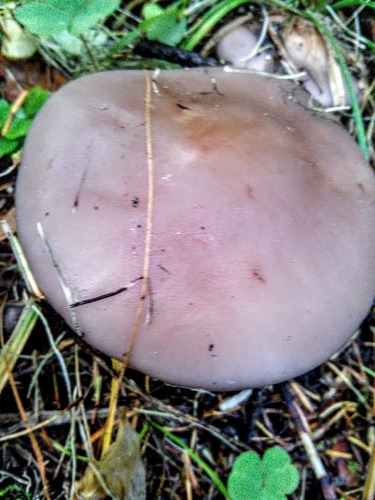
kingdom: Fungi
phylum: Basidiomycota
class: Agaricomycetes
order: Agaricales
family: Tricholomataceae
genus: Lepista
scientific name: Lepista nuda
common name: Wood blewit
